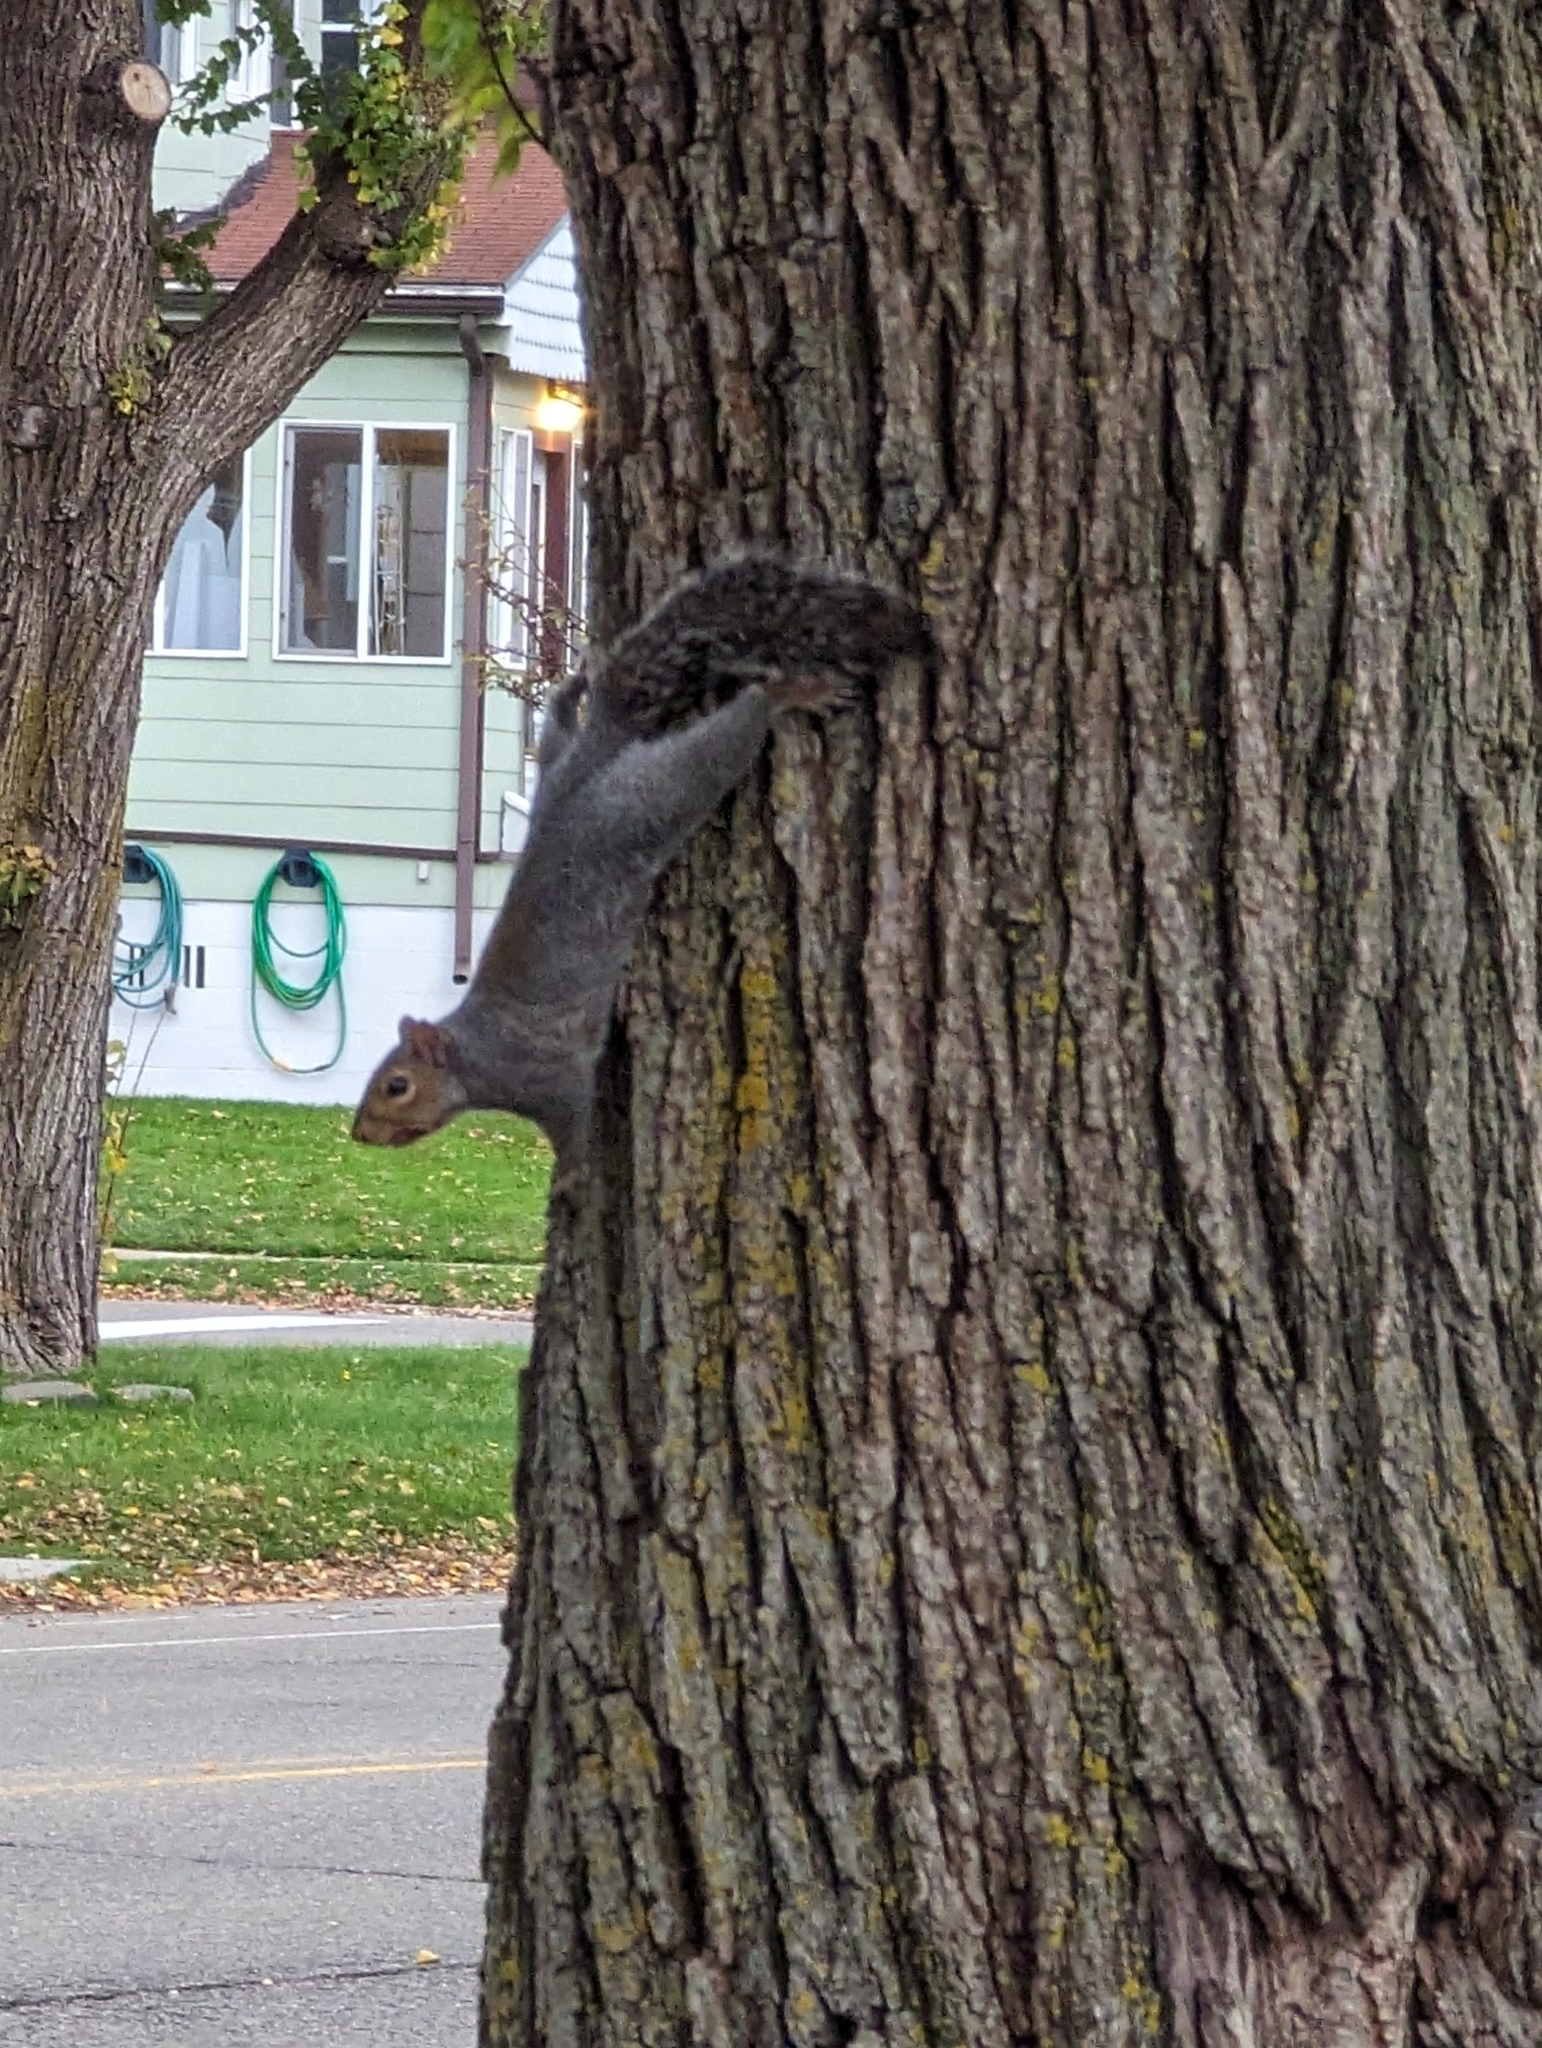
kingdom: Animalia
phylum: Chordata
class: Mammalia
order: Rodentia
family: Sciuridae
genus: Sciurus
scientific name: Sciurus carolinensis
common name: Eastern gray squirrel
